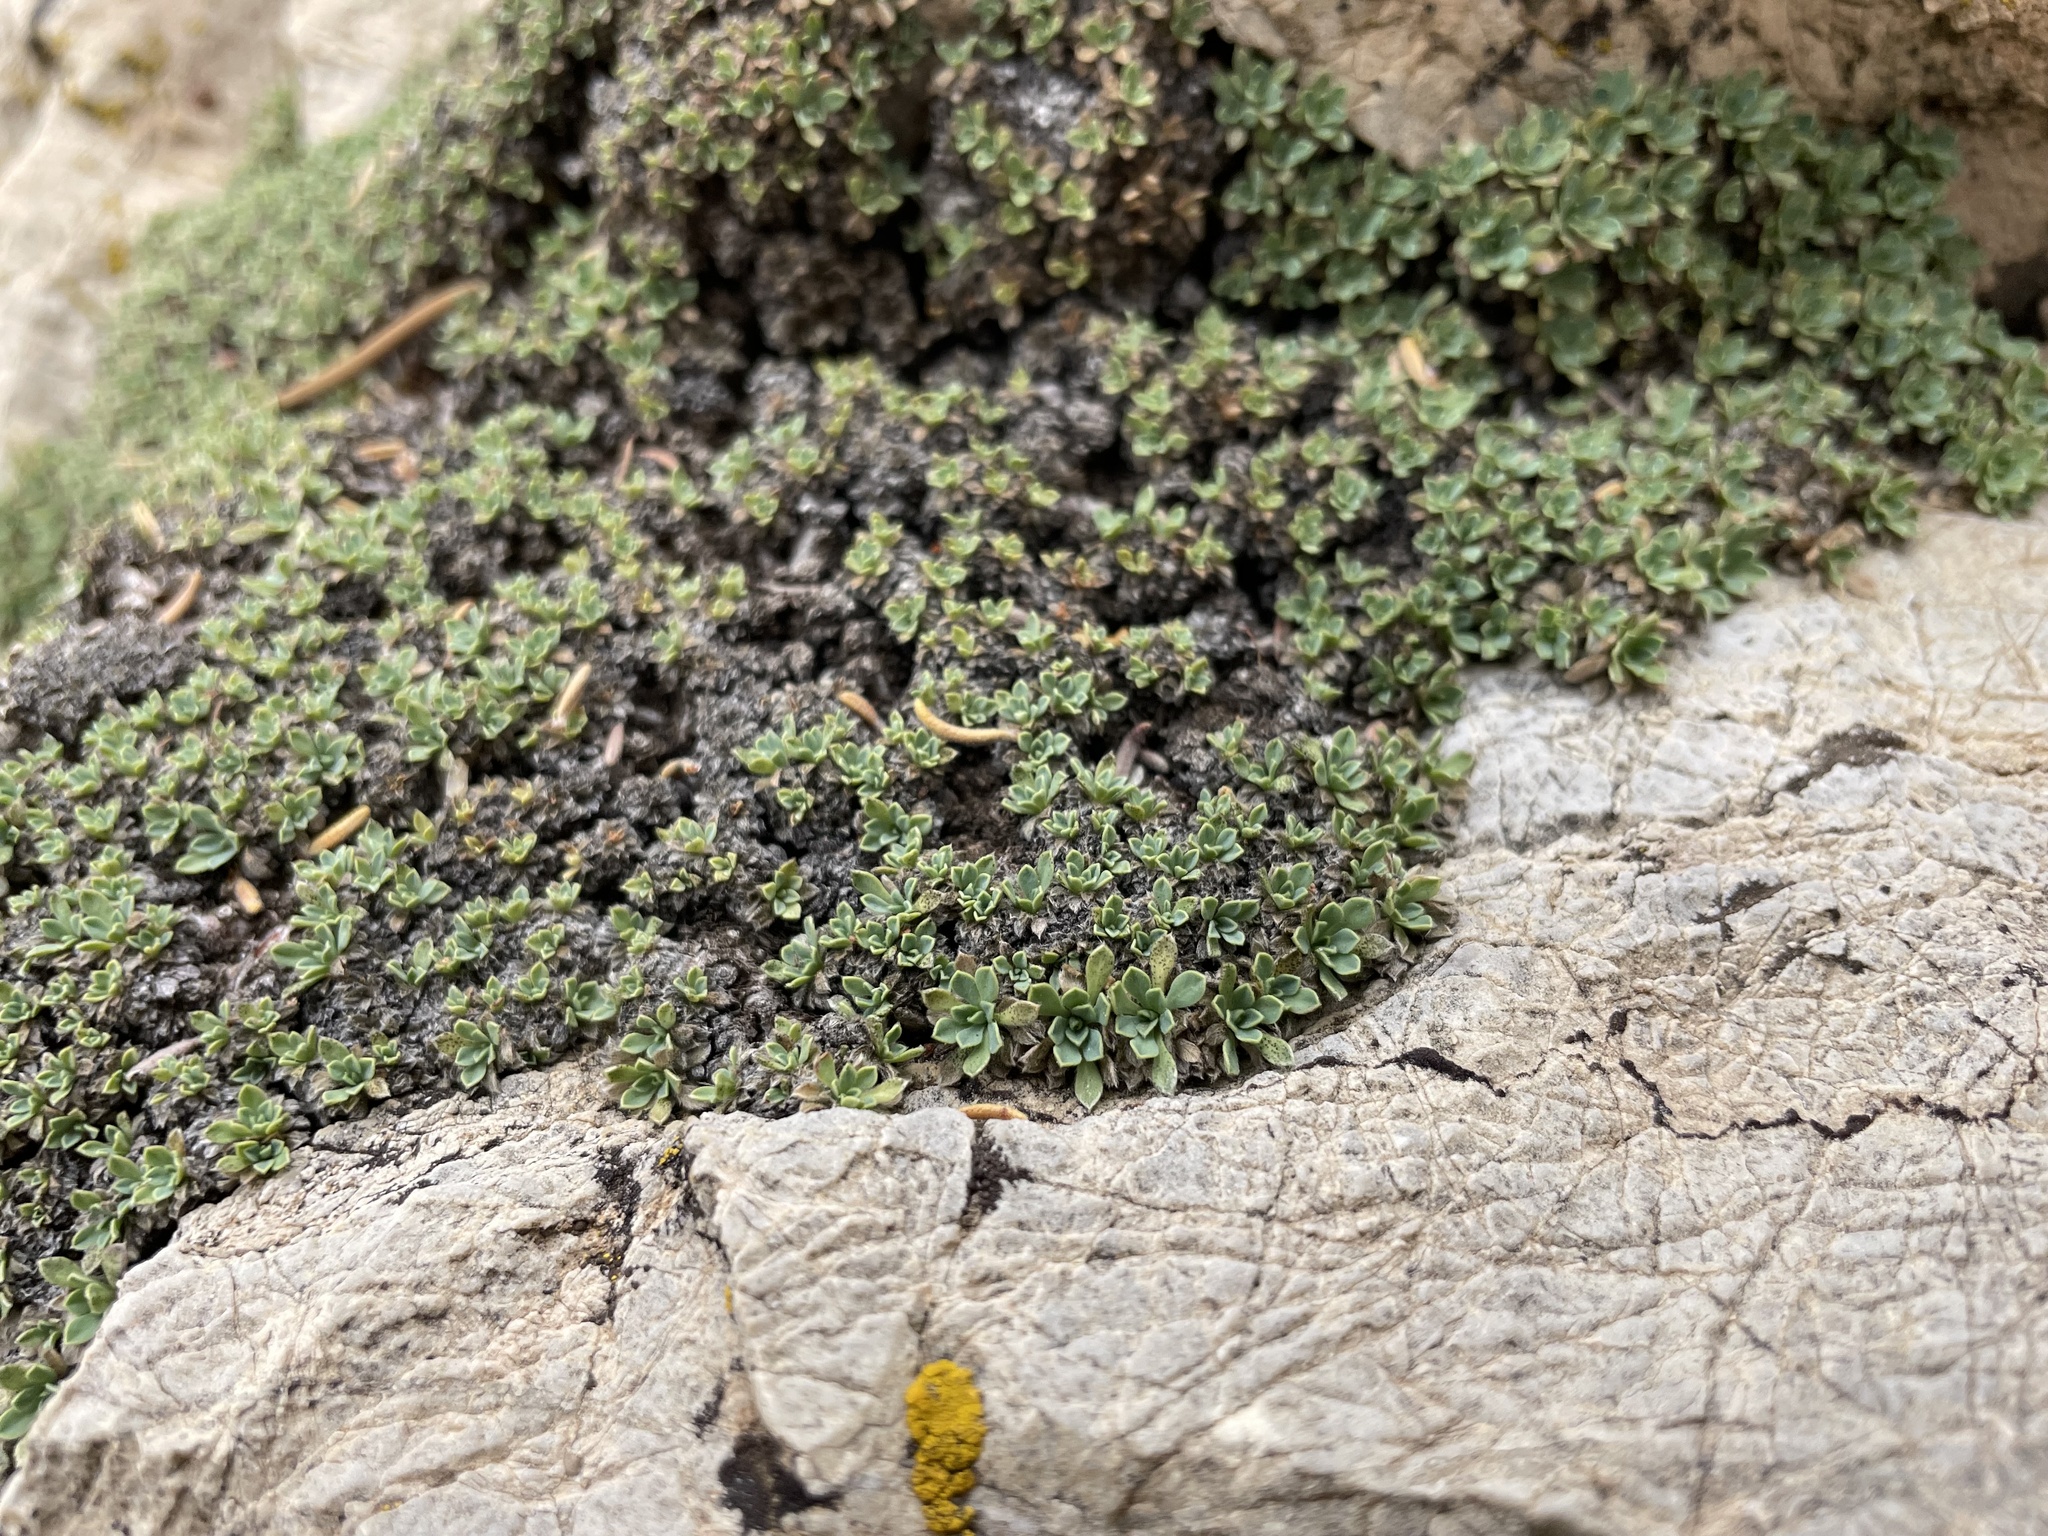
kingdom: Plantae
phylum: Tracheophyta
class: Magnoliopsida
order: Rosales
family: Rosaceae
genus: Petrophytum
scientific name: Petrophytum caespitosum
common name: Mat rockspirea
